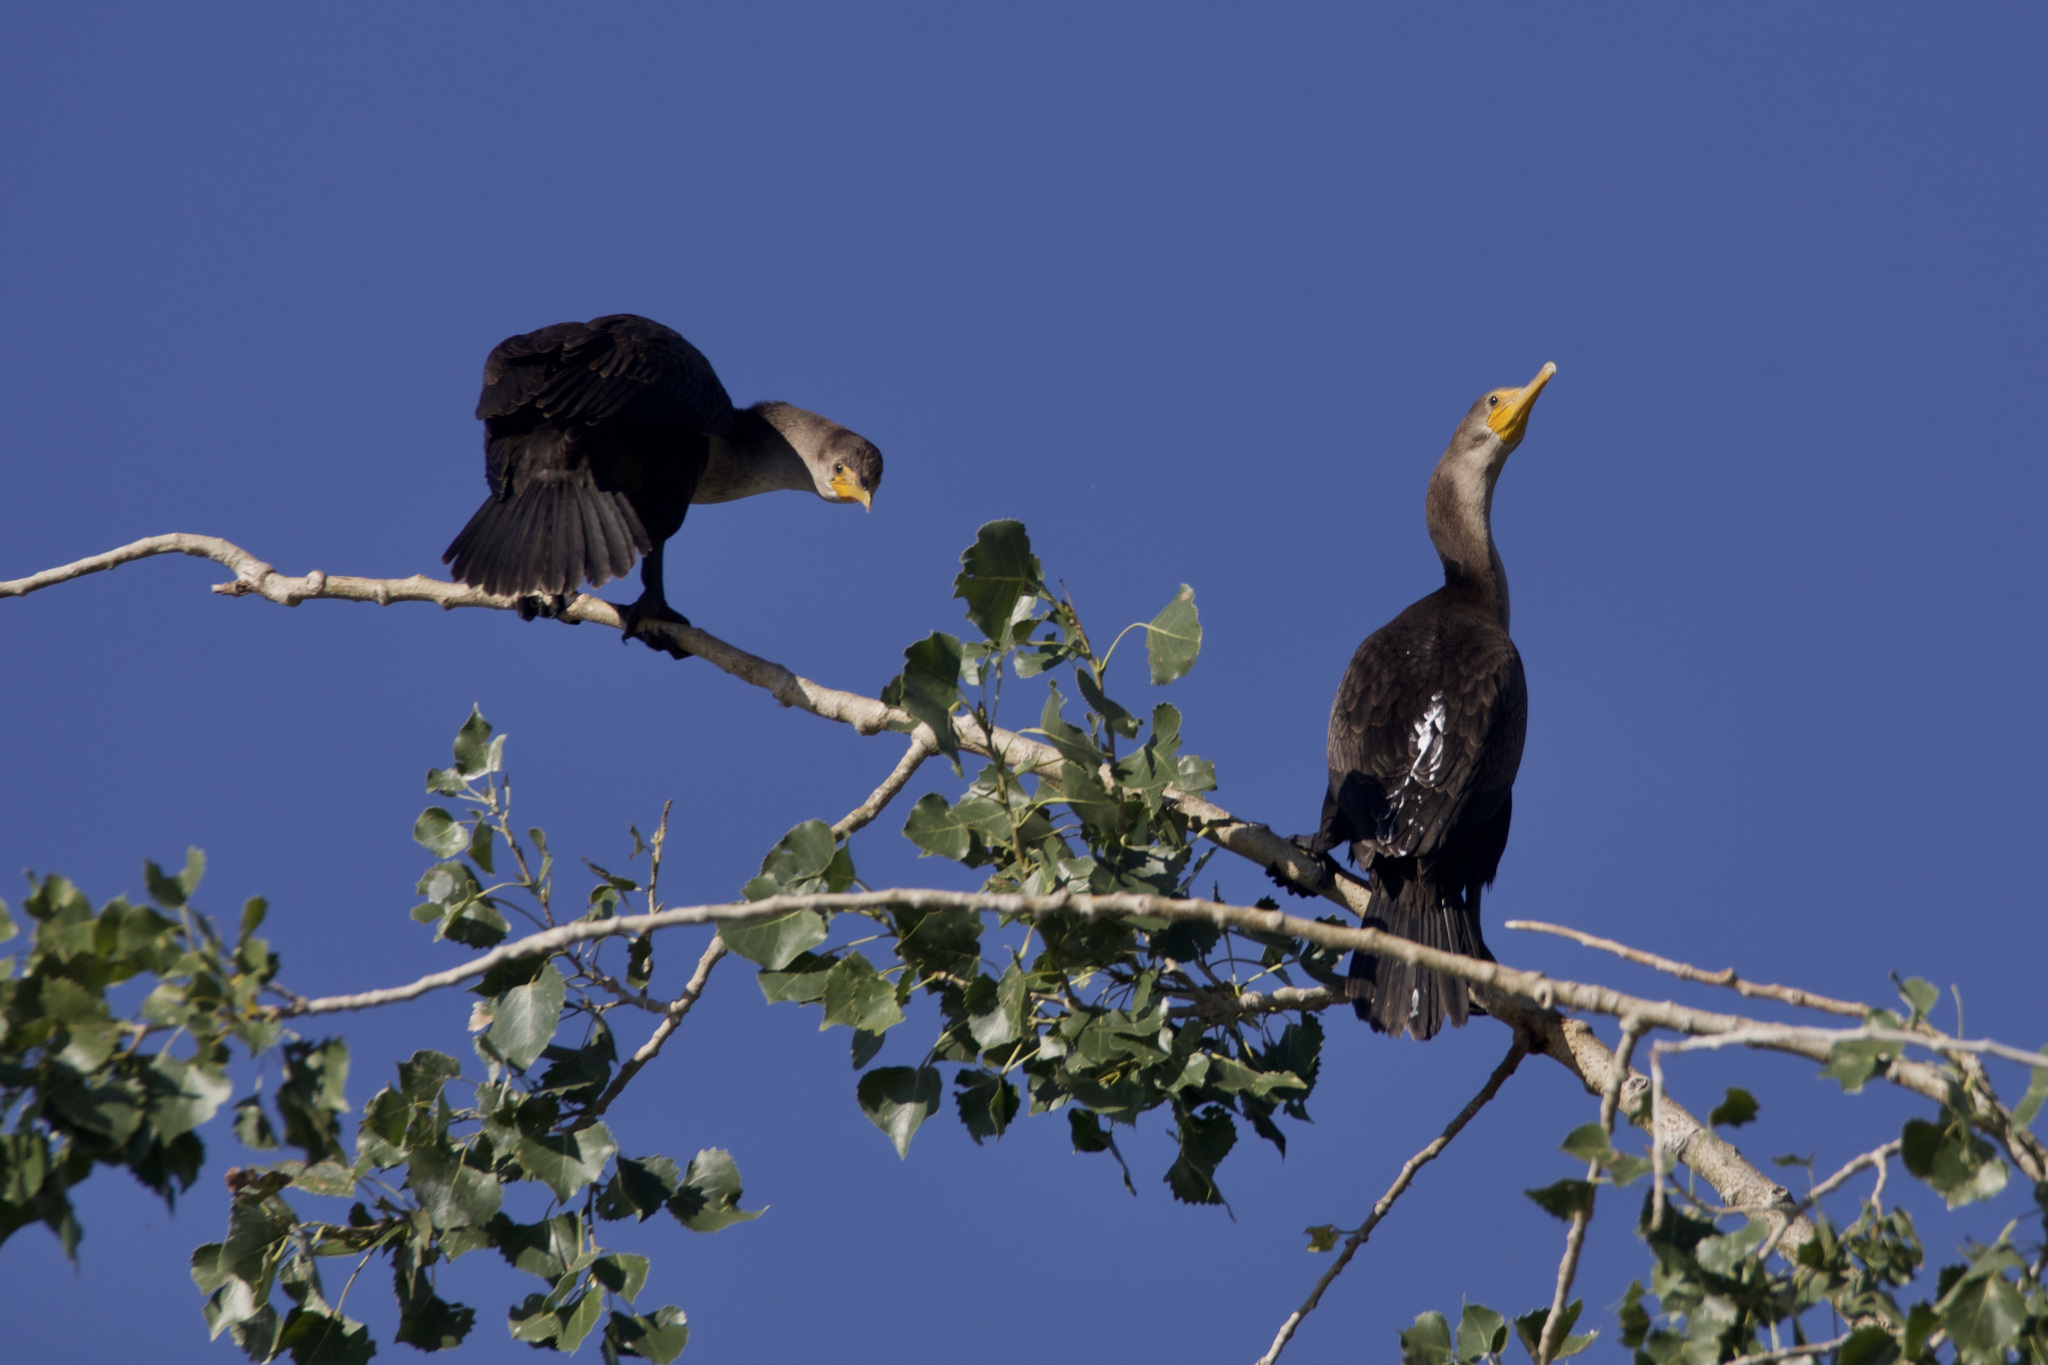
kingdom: Animalia
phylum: Chordata
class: Aves
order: Suliformes
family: Phalacrocoracidae
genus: Phalacrocorax
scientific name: Phalacrocorax auritus
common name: Double-crested cormorant
